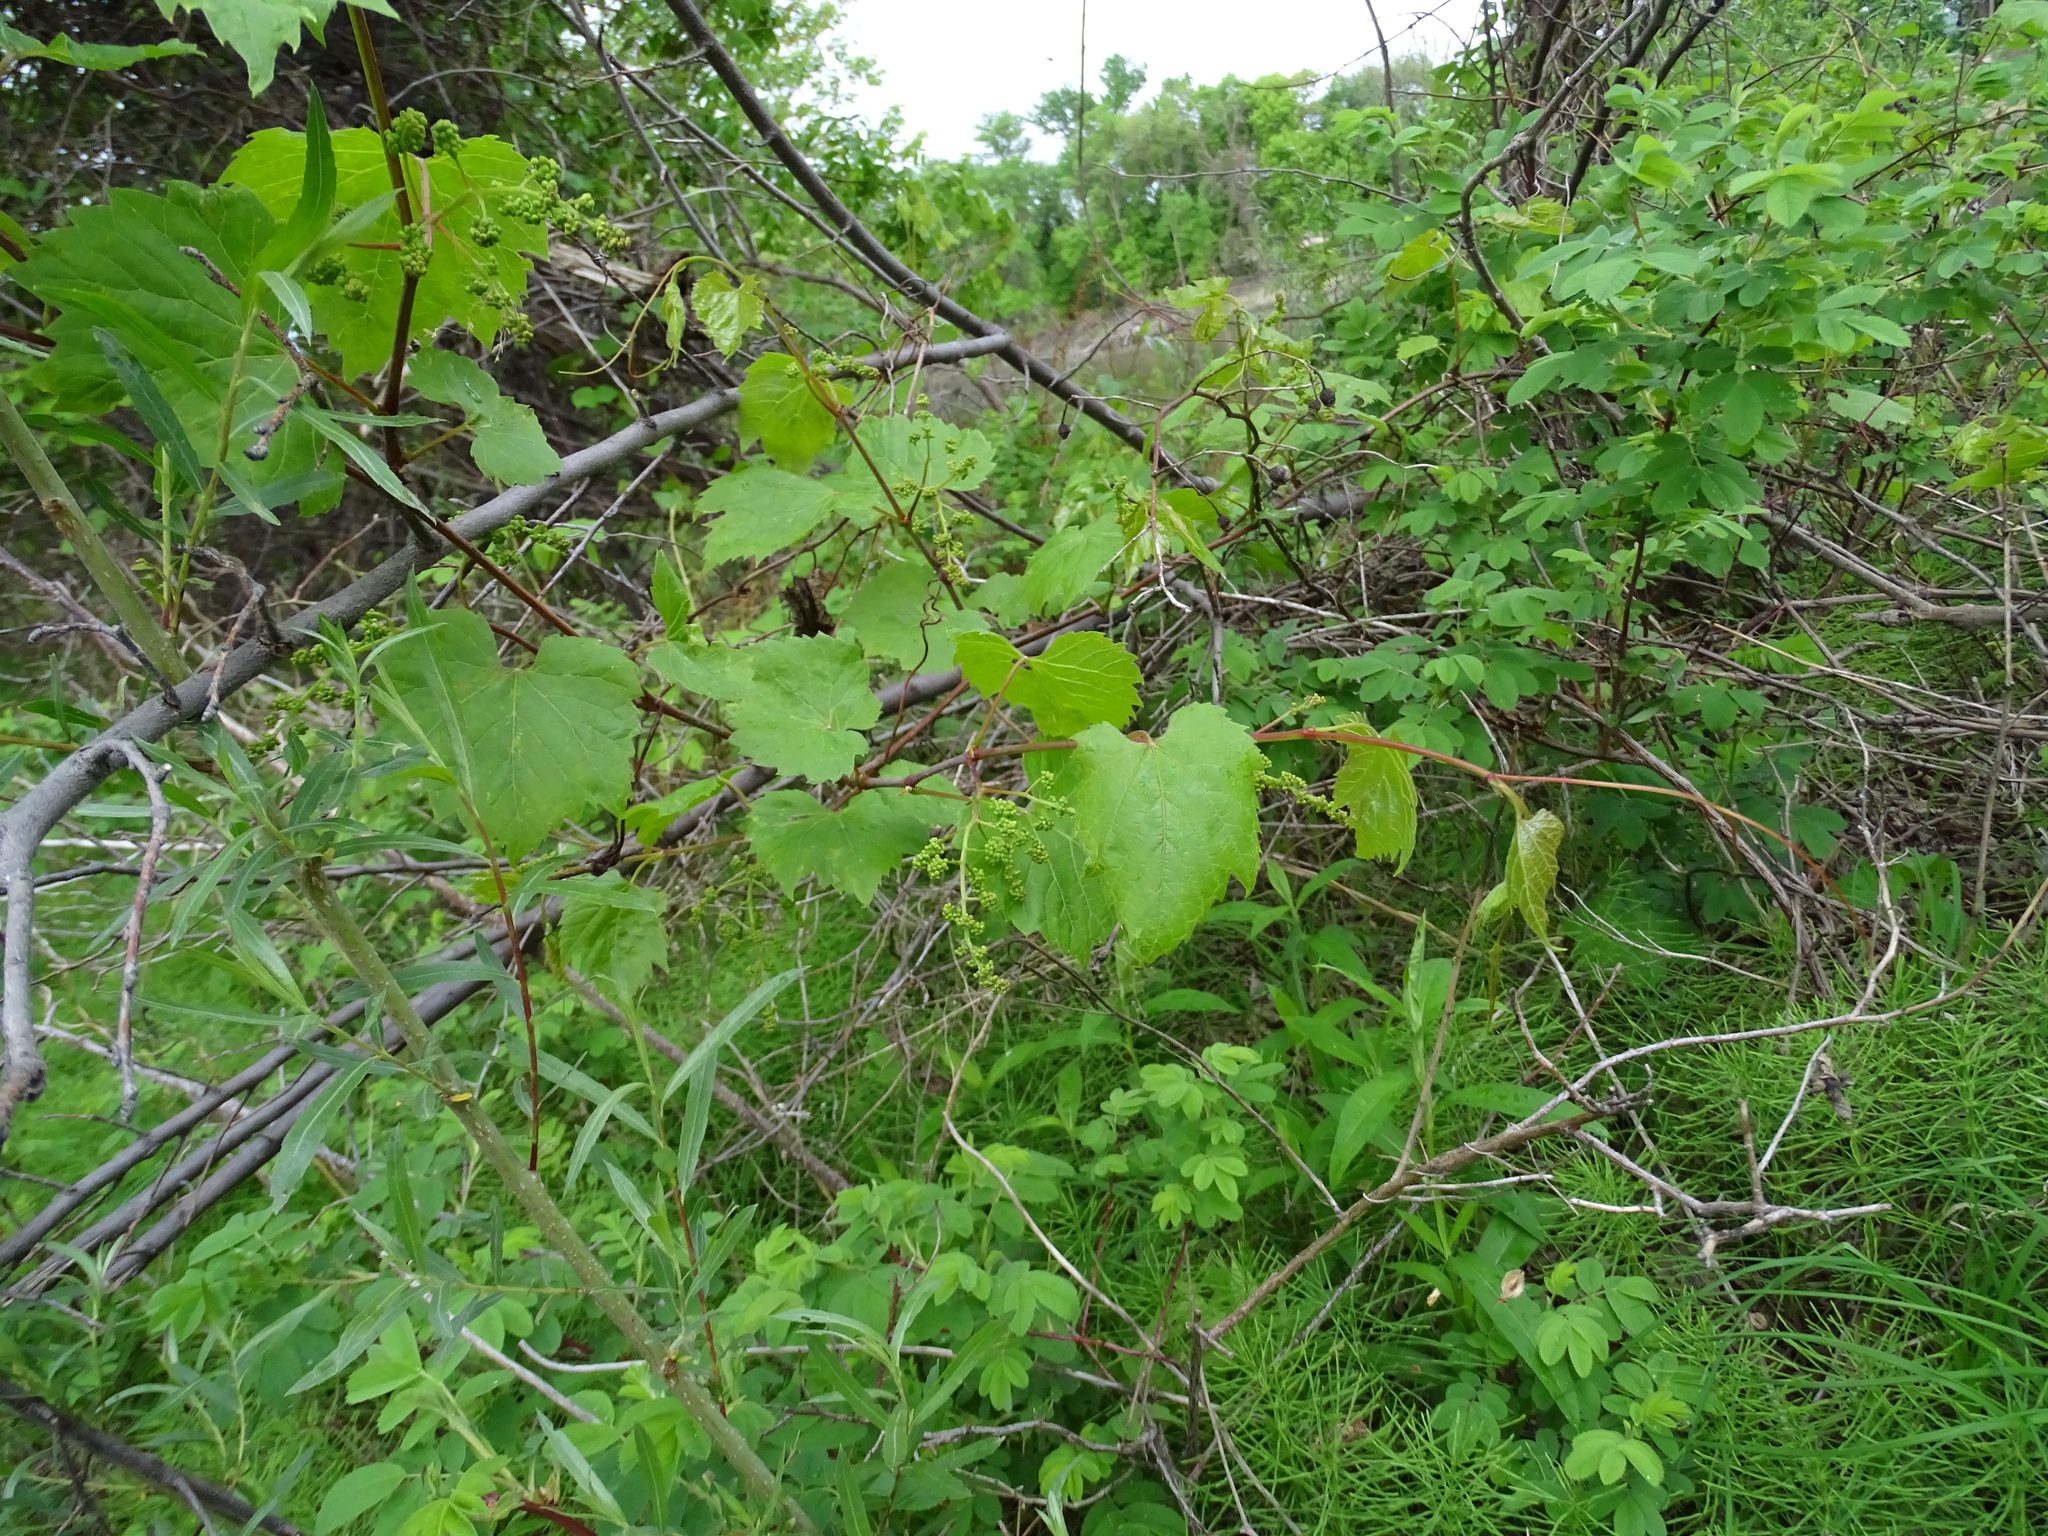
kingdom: Plantae
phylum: Tracheophyta
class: Magnoliopsida
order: Vitales
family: Vitaceae
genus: Vitis
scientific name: Vitis riparia
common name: Frost grape
